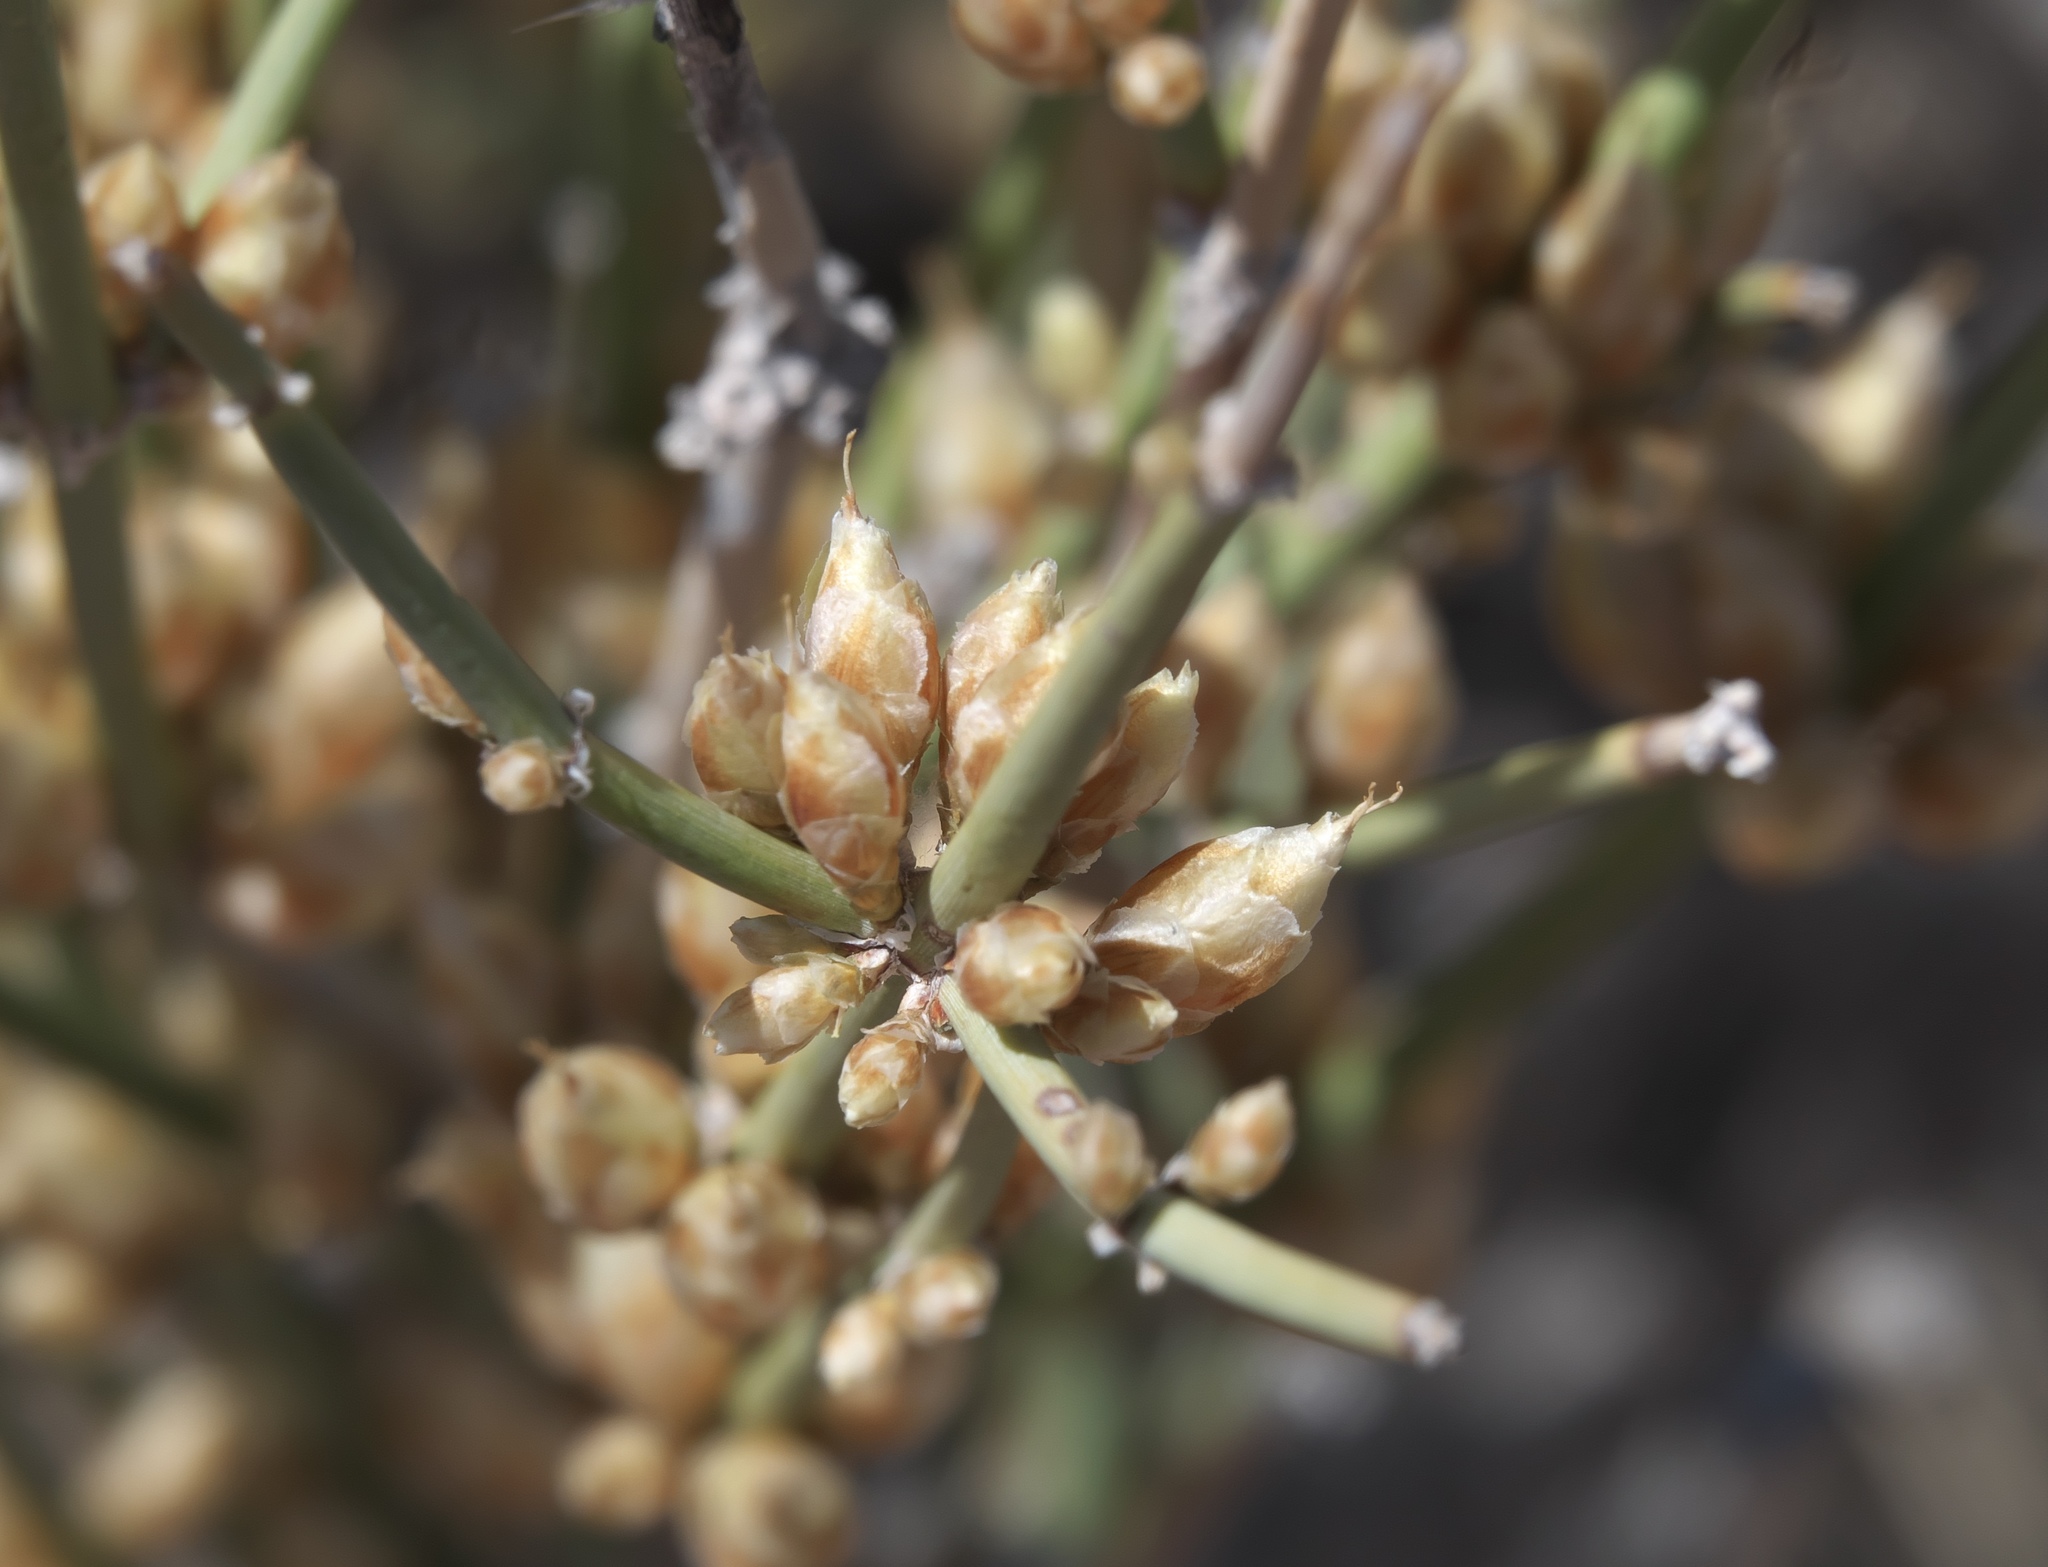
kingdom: Plantae
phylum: Tracheophyta
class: Gnetopsida
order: Ephedrales
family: Ephedraceae
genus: Ephedra
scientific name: Ephedra torreyana
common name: Torrey ephedra
